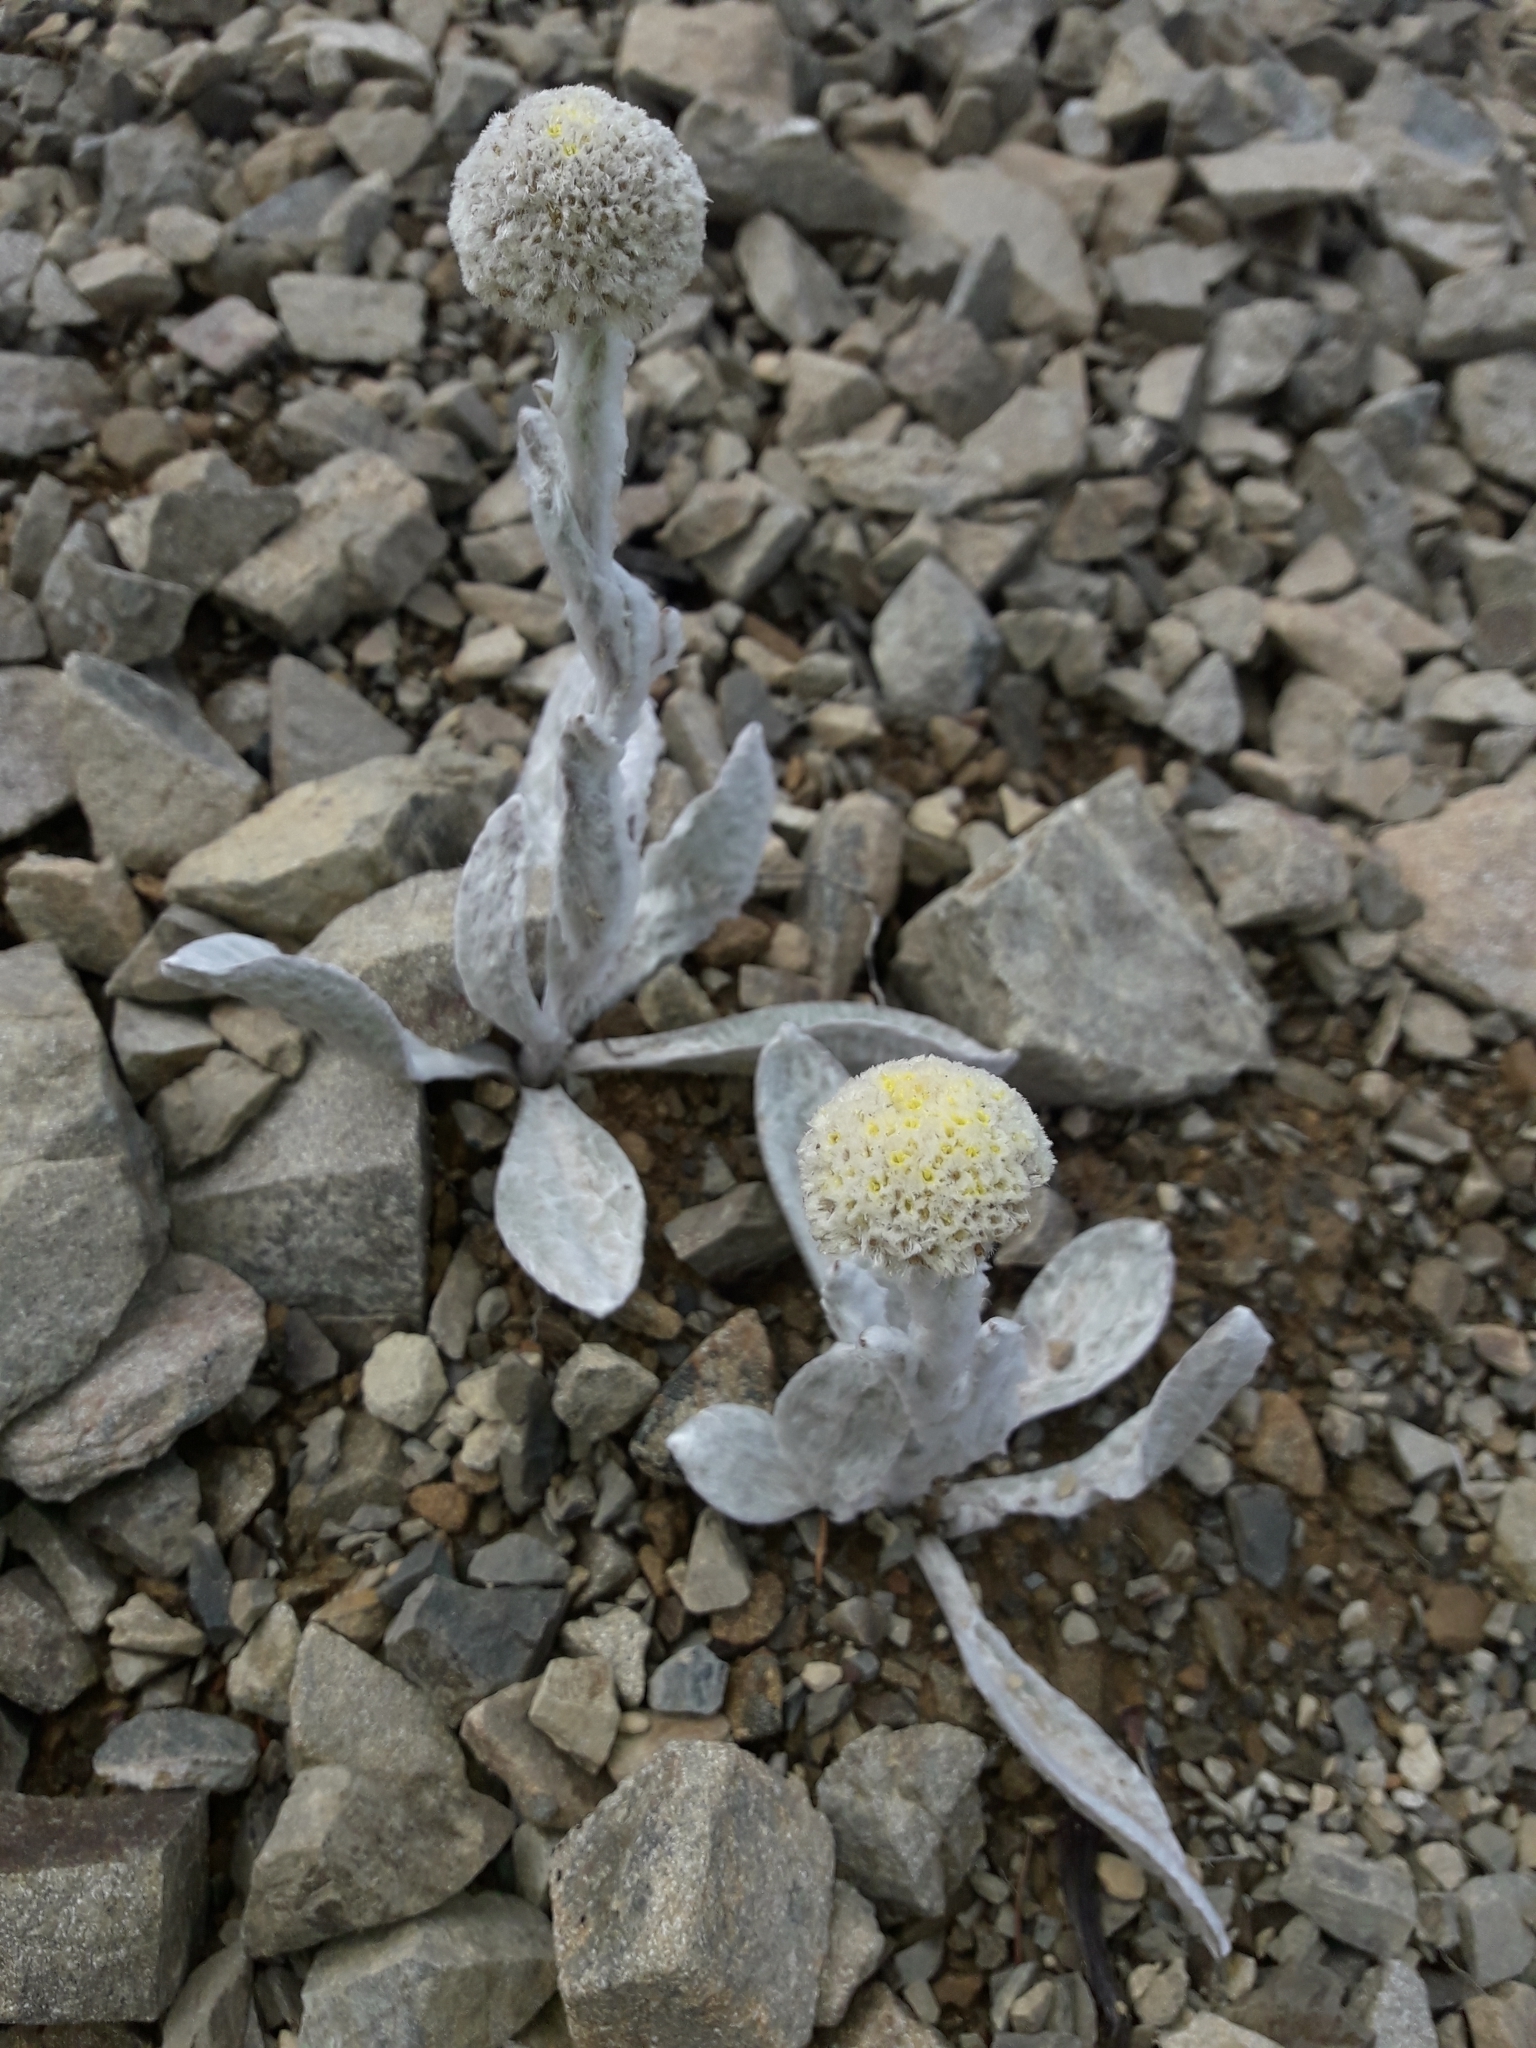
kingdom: Plantae
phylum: Tracheophyta
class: Magnoliopsida
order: Asterales
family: Asteraceae
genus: Craspedia
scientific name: Craspedia incana
